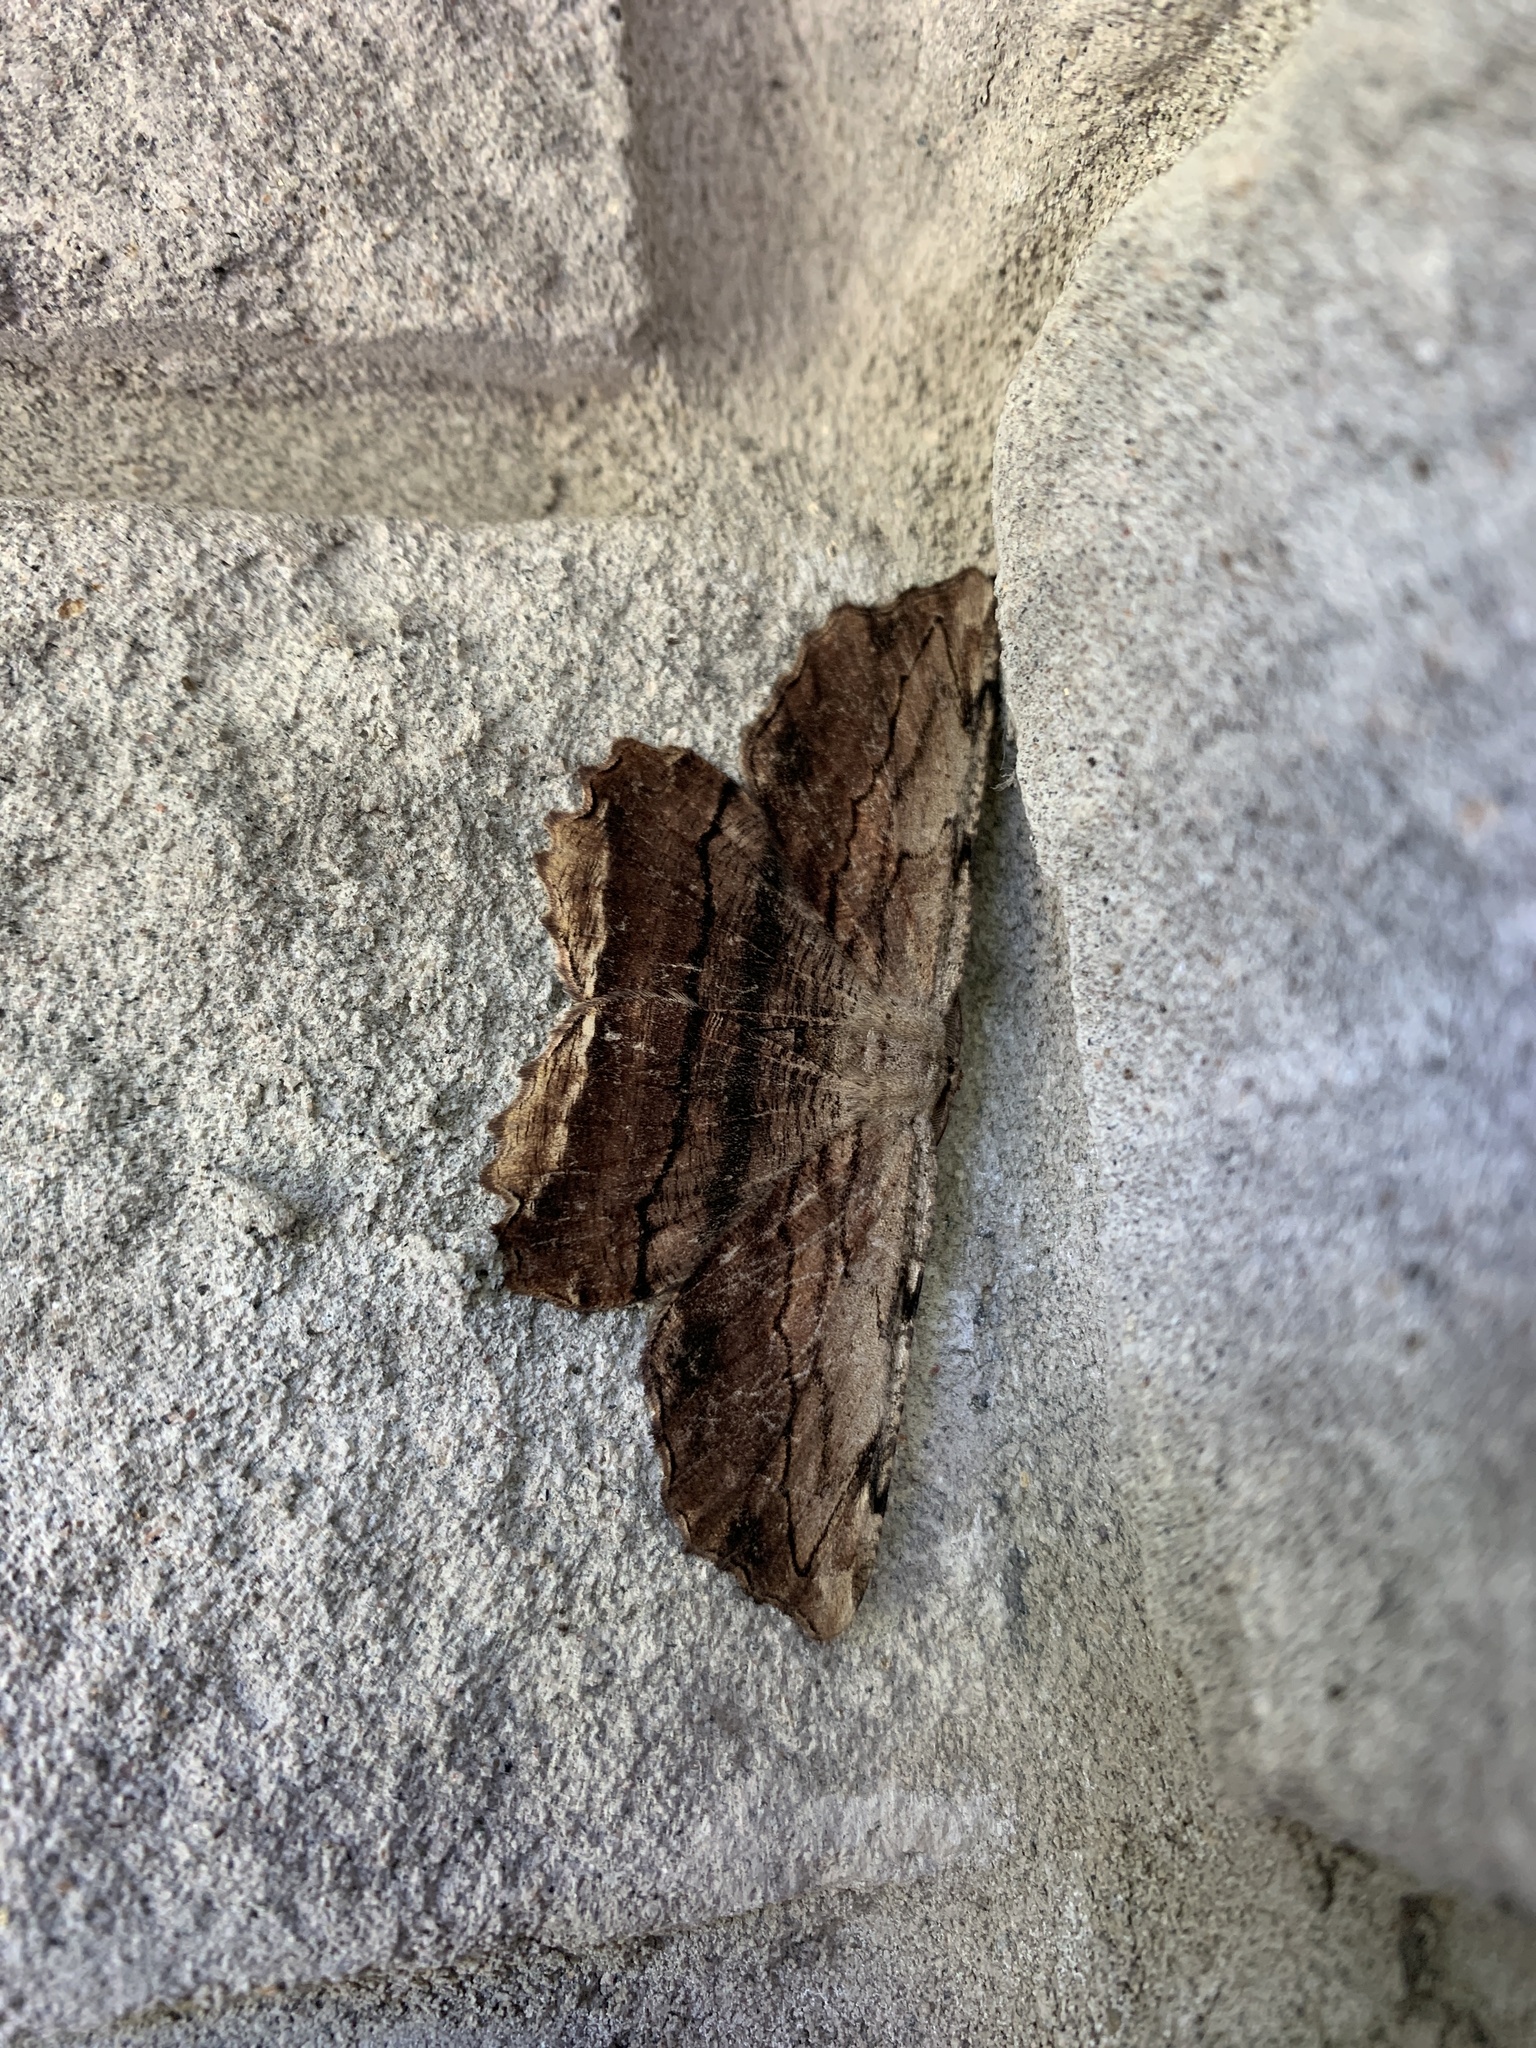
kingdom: Animalia
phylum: Arthropoda
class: Insecta
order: Lepidoptera
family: Geometridae
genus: Lytrosis
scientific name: Lytrosis unitaria
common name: Common lytrosis
